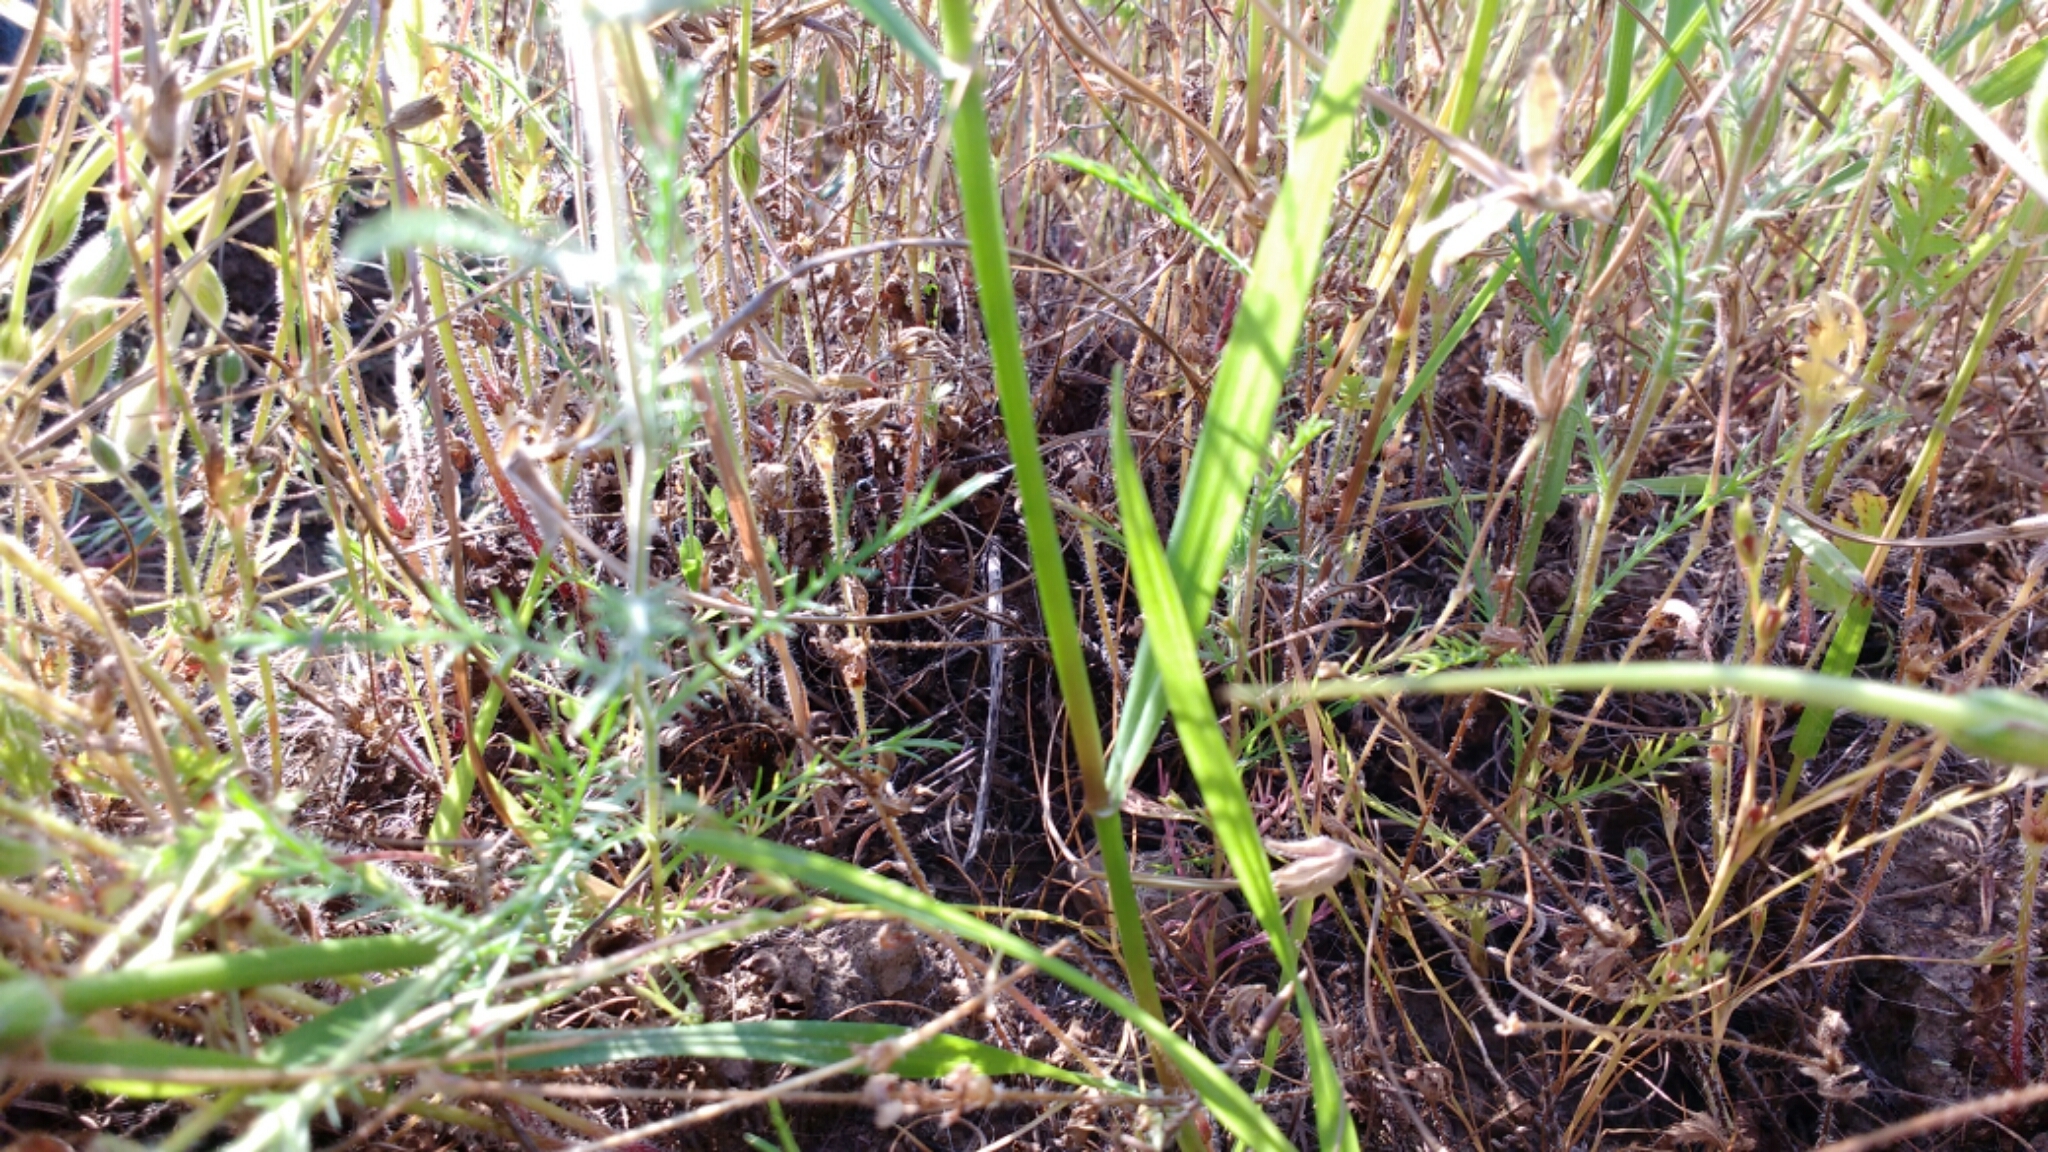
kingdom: Plantae
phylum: Tracheophyta
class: Magnoliopsida
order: Ericales
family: Polemoniaceae
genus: Navarretia
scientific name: Navarretia pubescens
